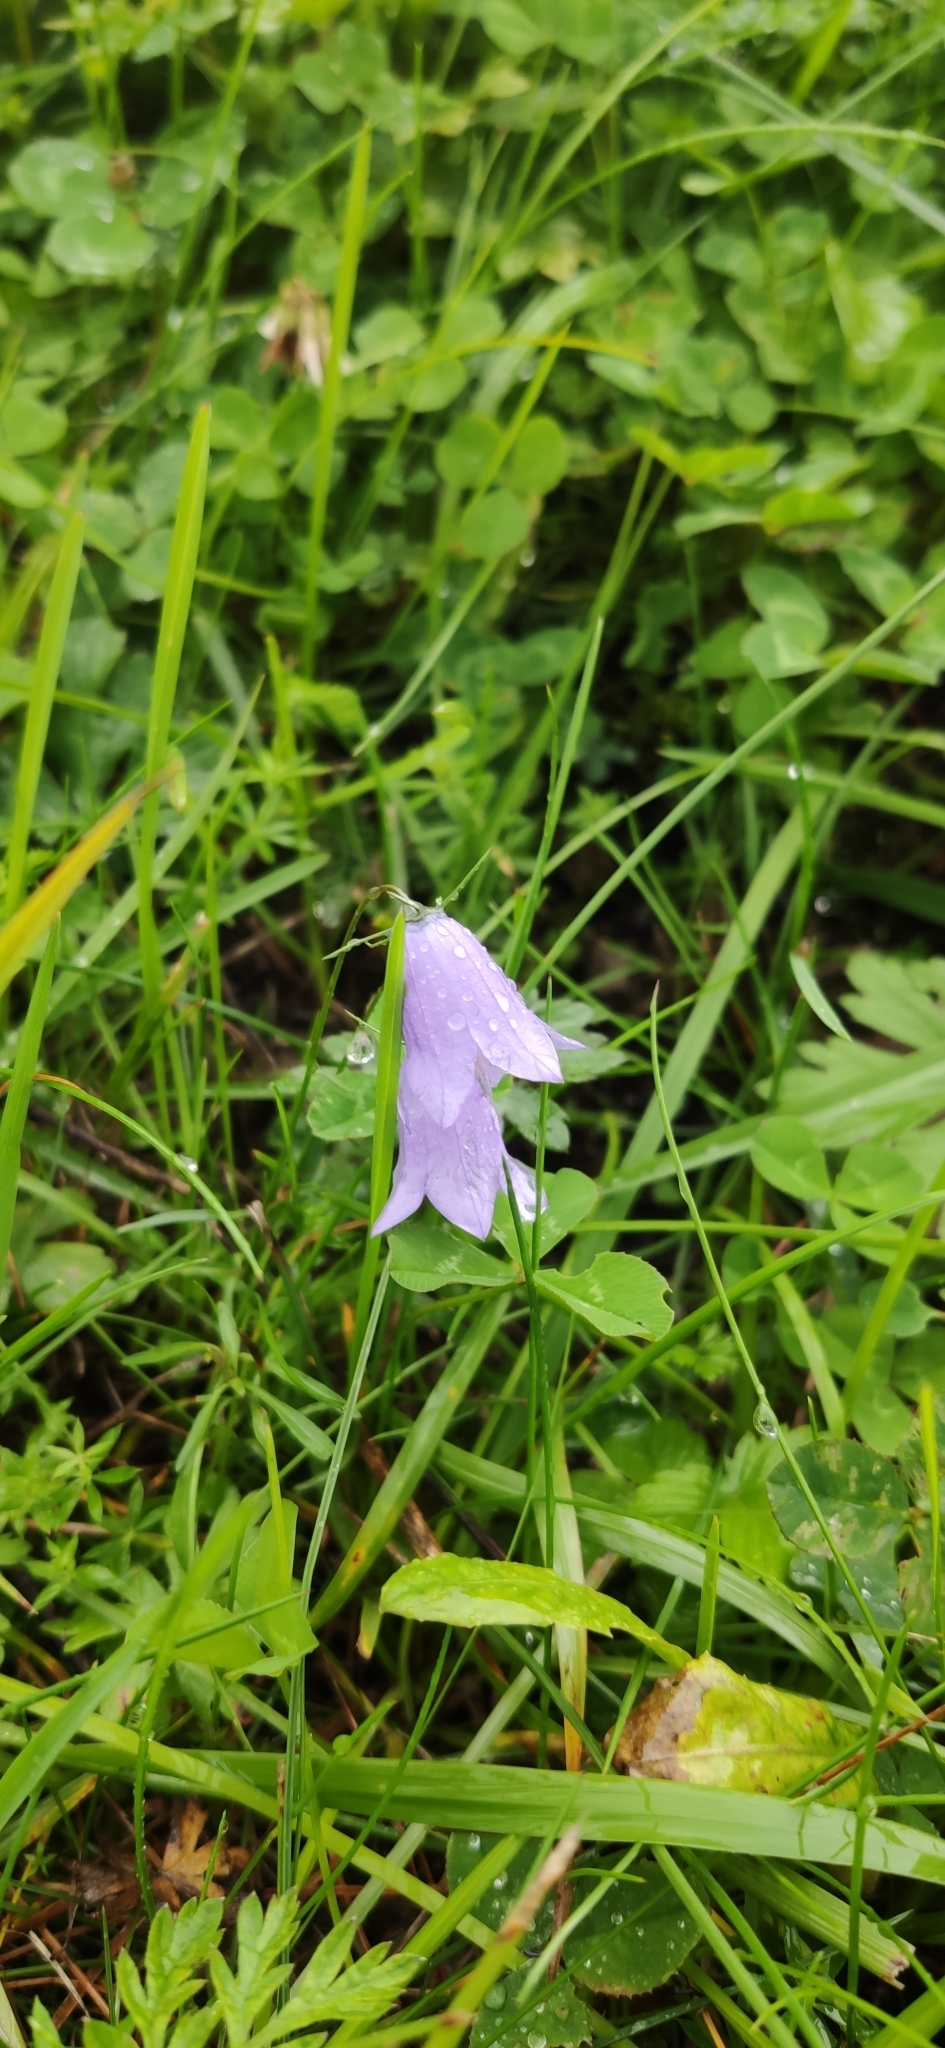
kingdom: Plantae
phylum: Tracheophyta
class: Magnoliopsida
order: Asterales
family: Campanulaceae
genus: Campanula
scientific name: Campanula rotundifolia
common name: Harebell
